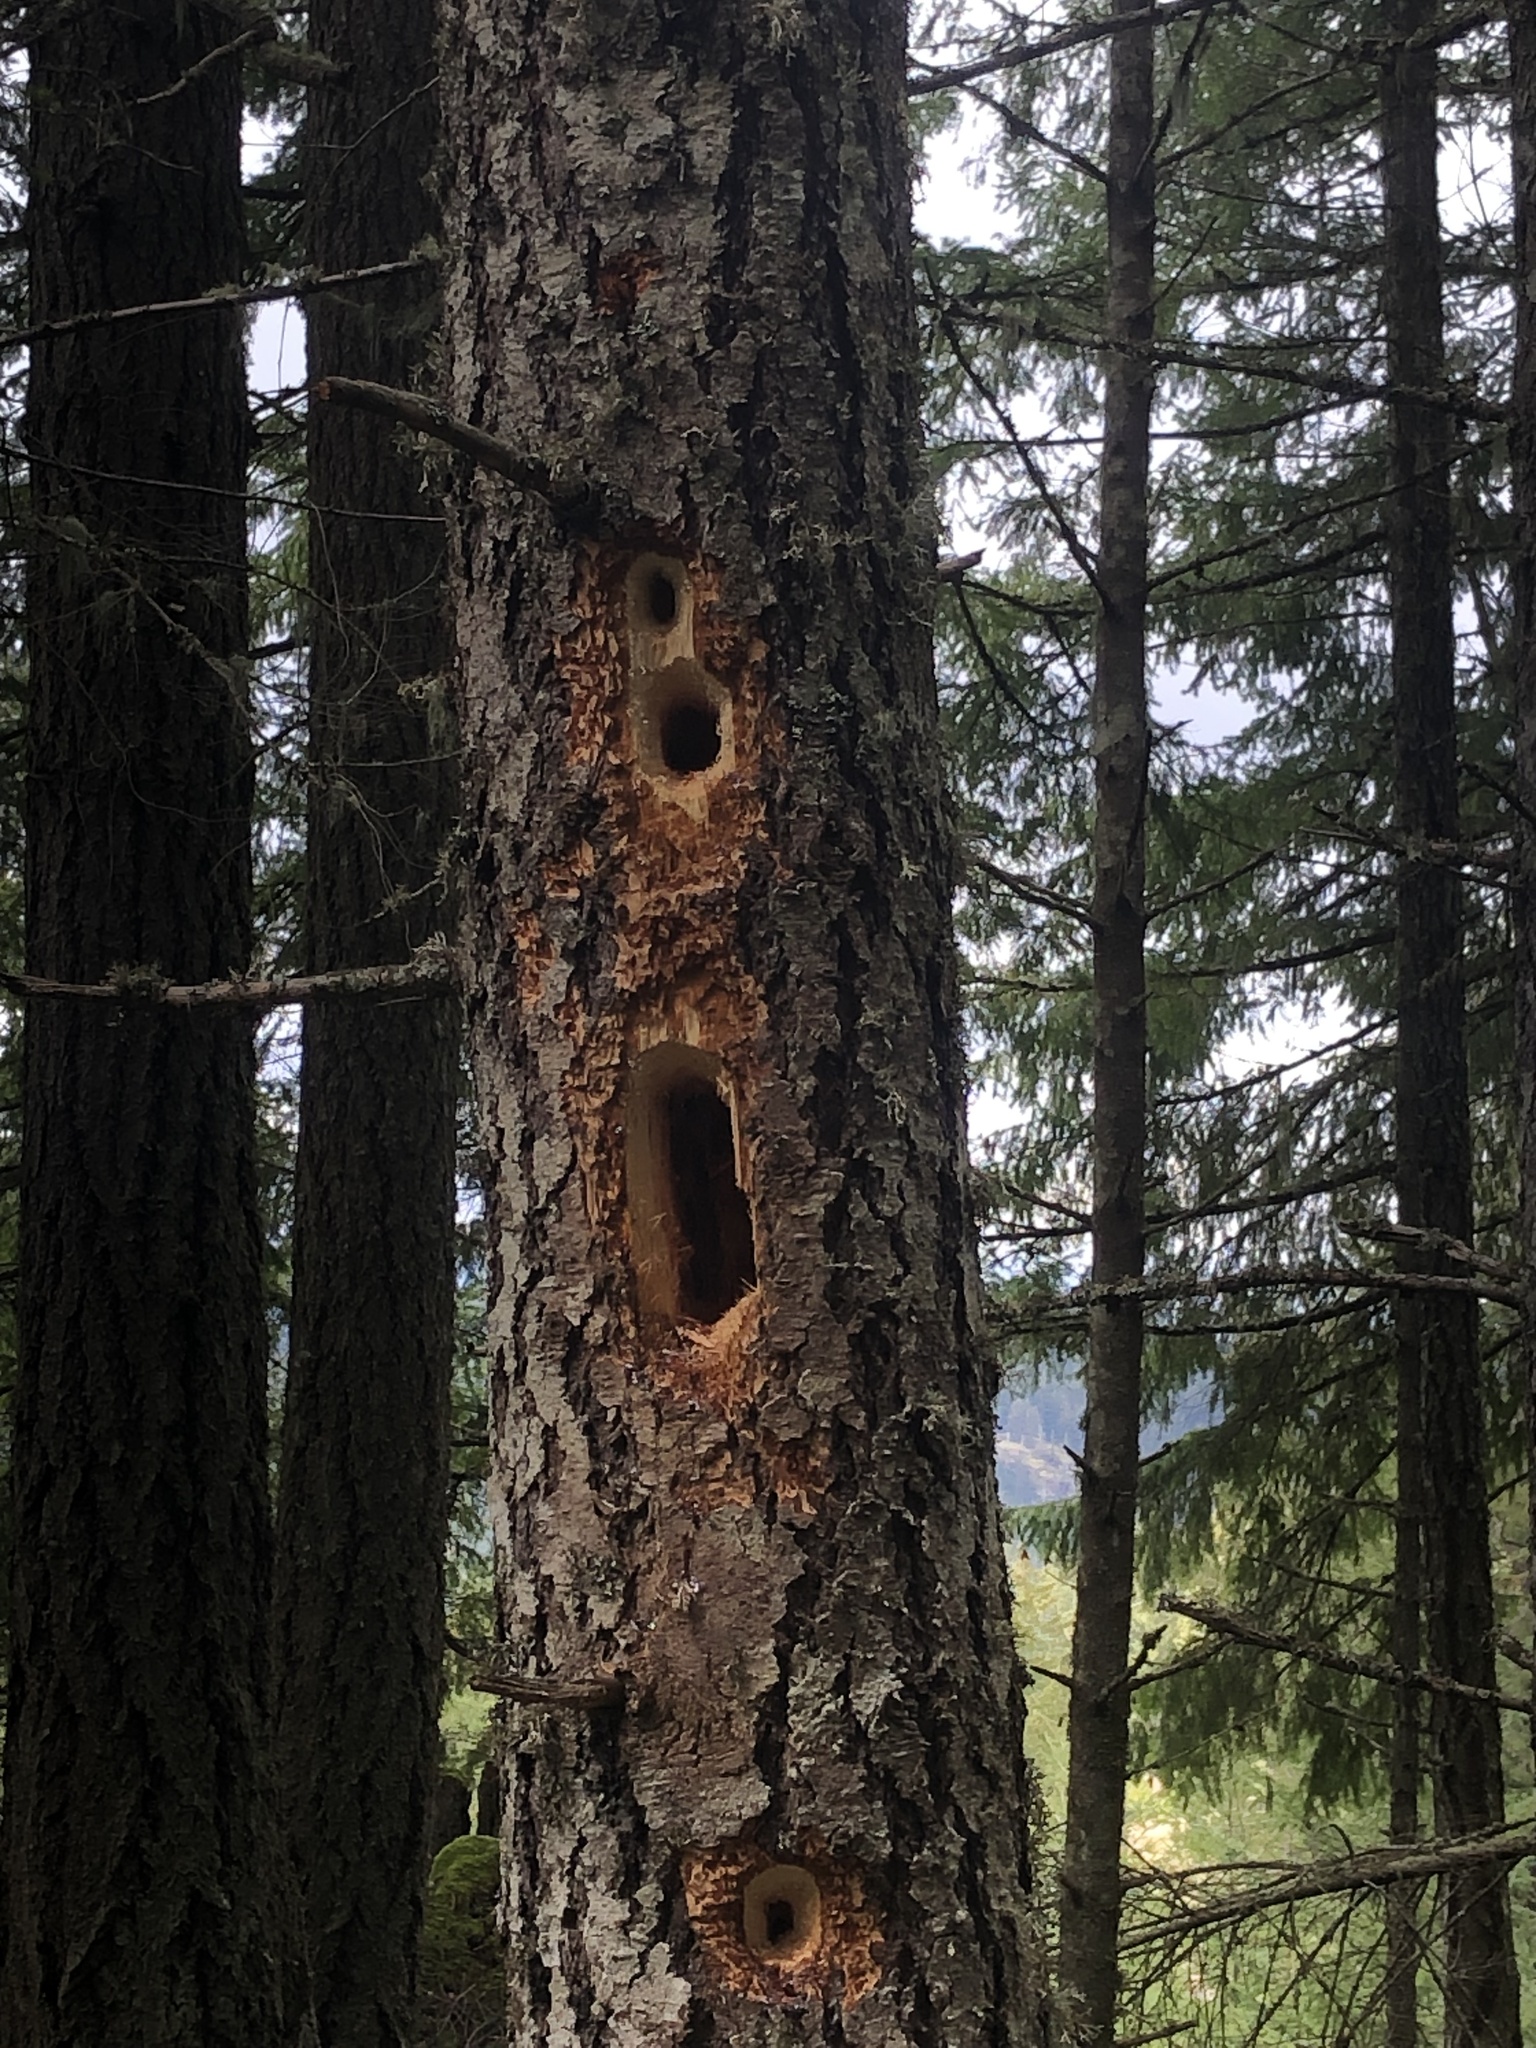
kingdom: Animalia
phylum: Chordata
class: Aves
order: Piciformes
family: Picidae
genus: Dryocopus
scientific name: Dryocopus pileatus
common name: Pileated woodpecker
